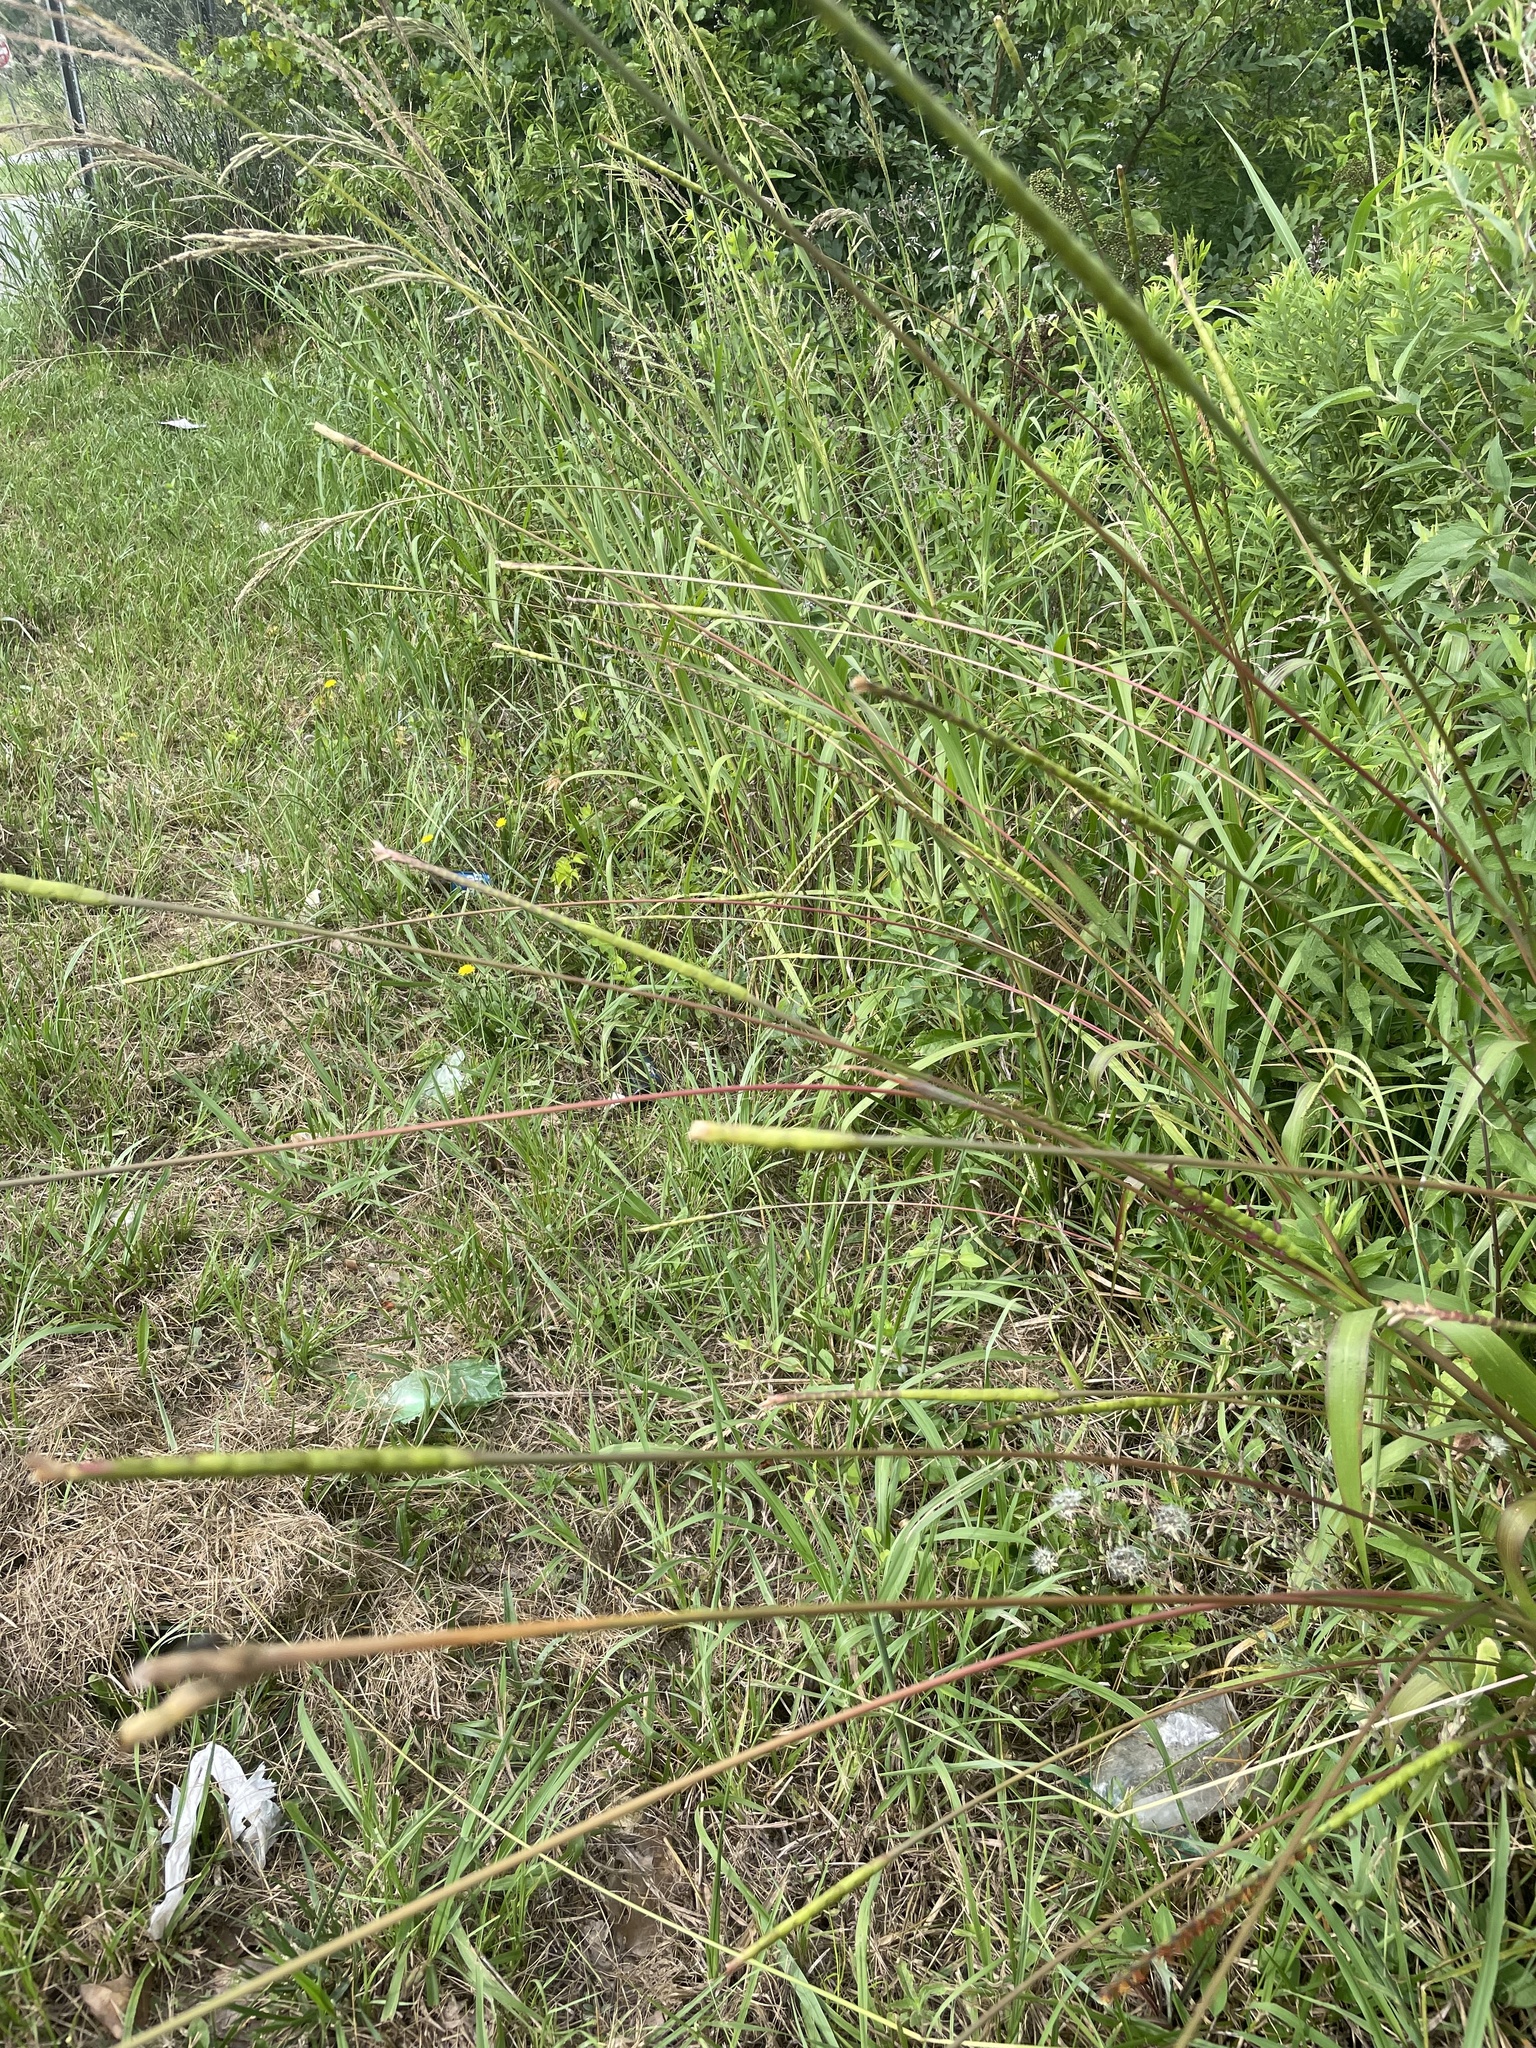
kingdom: Plantae
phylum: Tracheophyta
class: Liliopsida
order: Poales
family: Poaceae
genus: Tripsacum
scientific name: Tripsacum dactyloides
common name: Buffalo-grass
